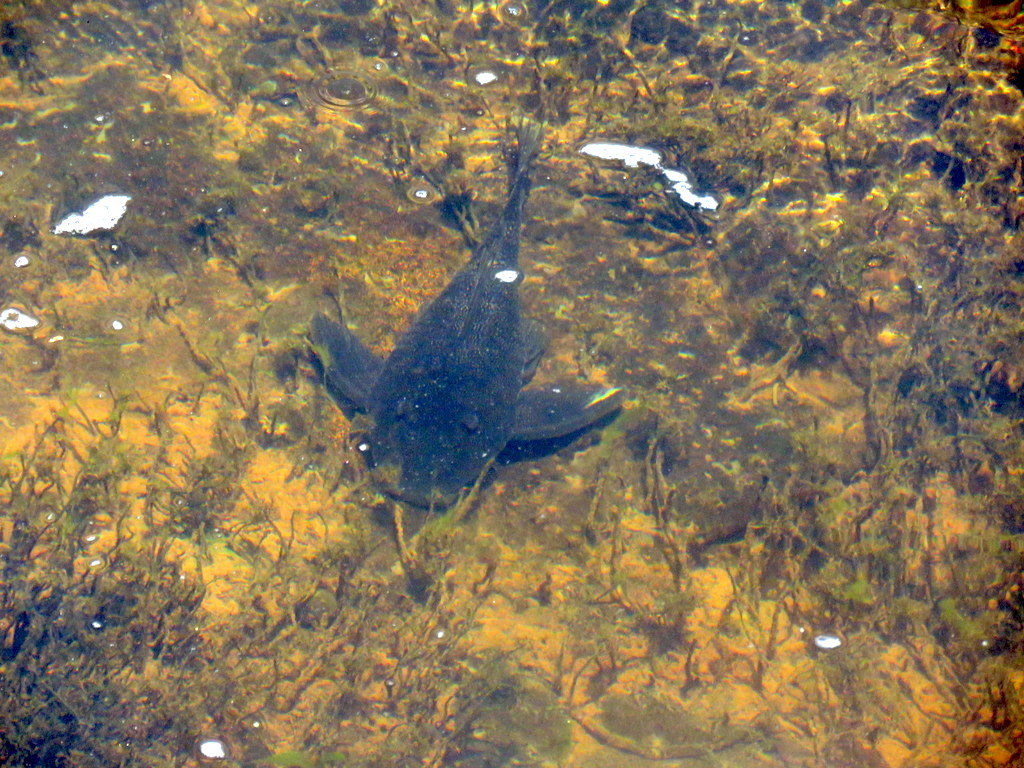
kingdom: Animalia
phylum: Chordata
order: Siluriformes
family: Loricariidae
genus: Hypostomus
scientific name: Hypostomus myersi
